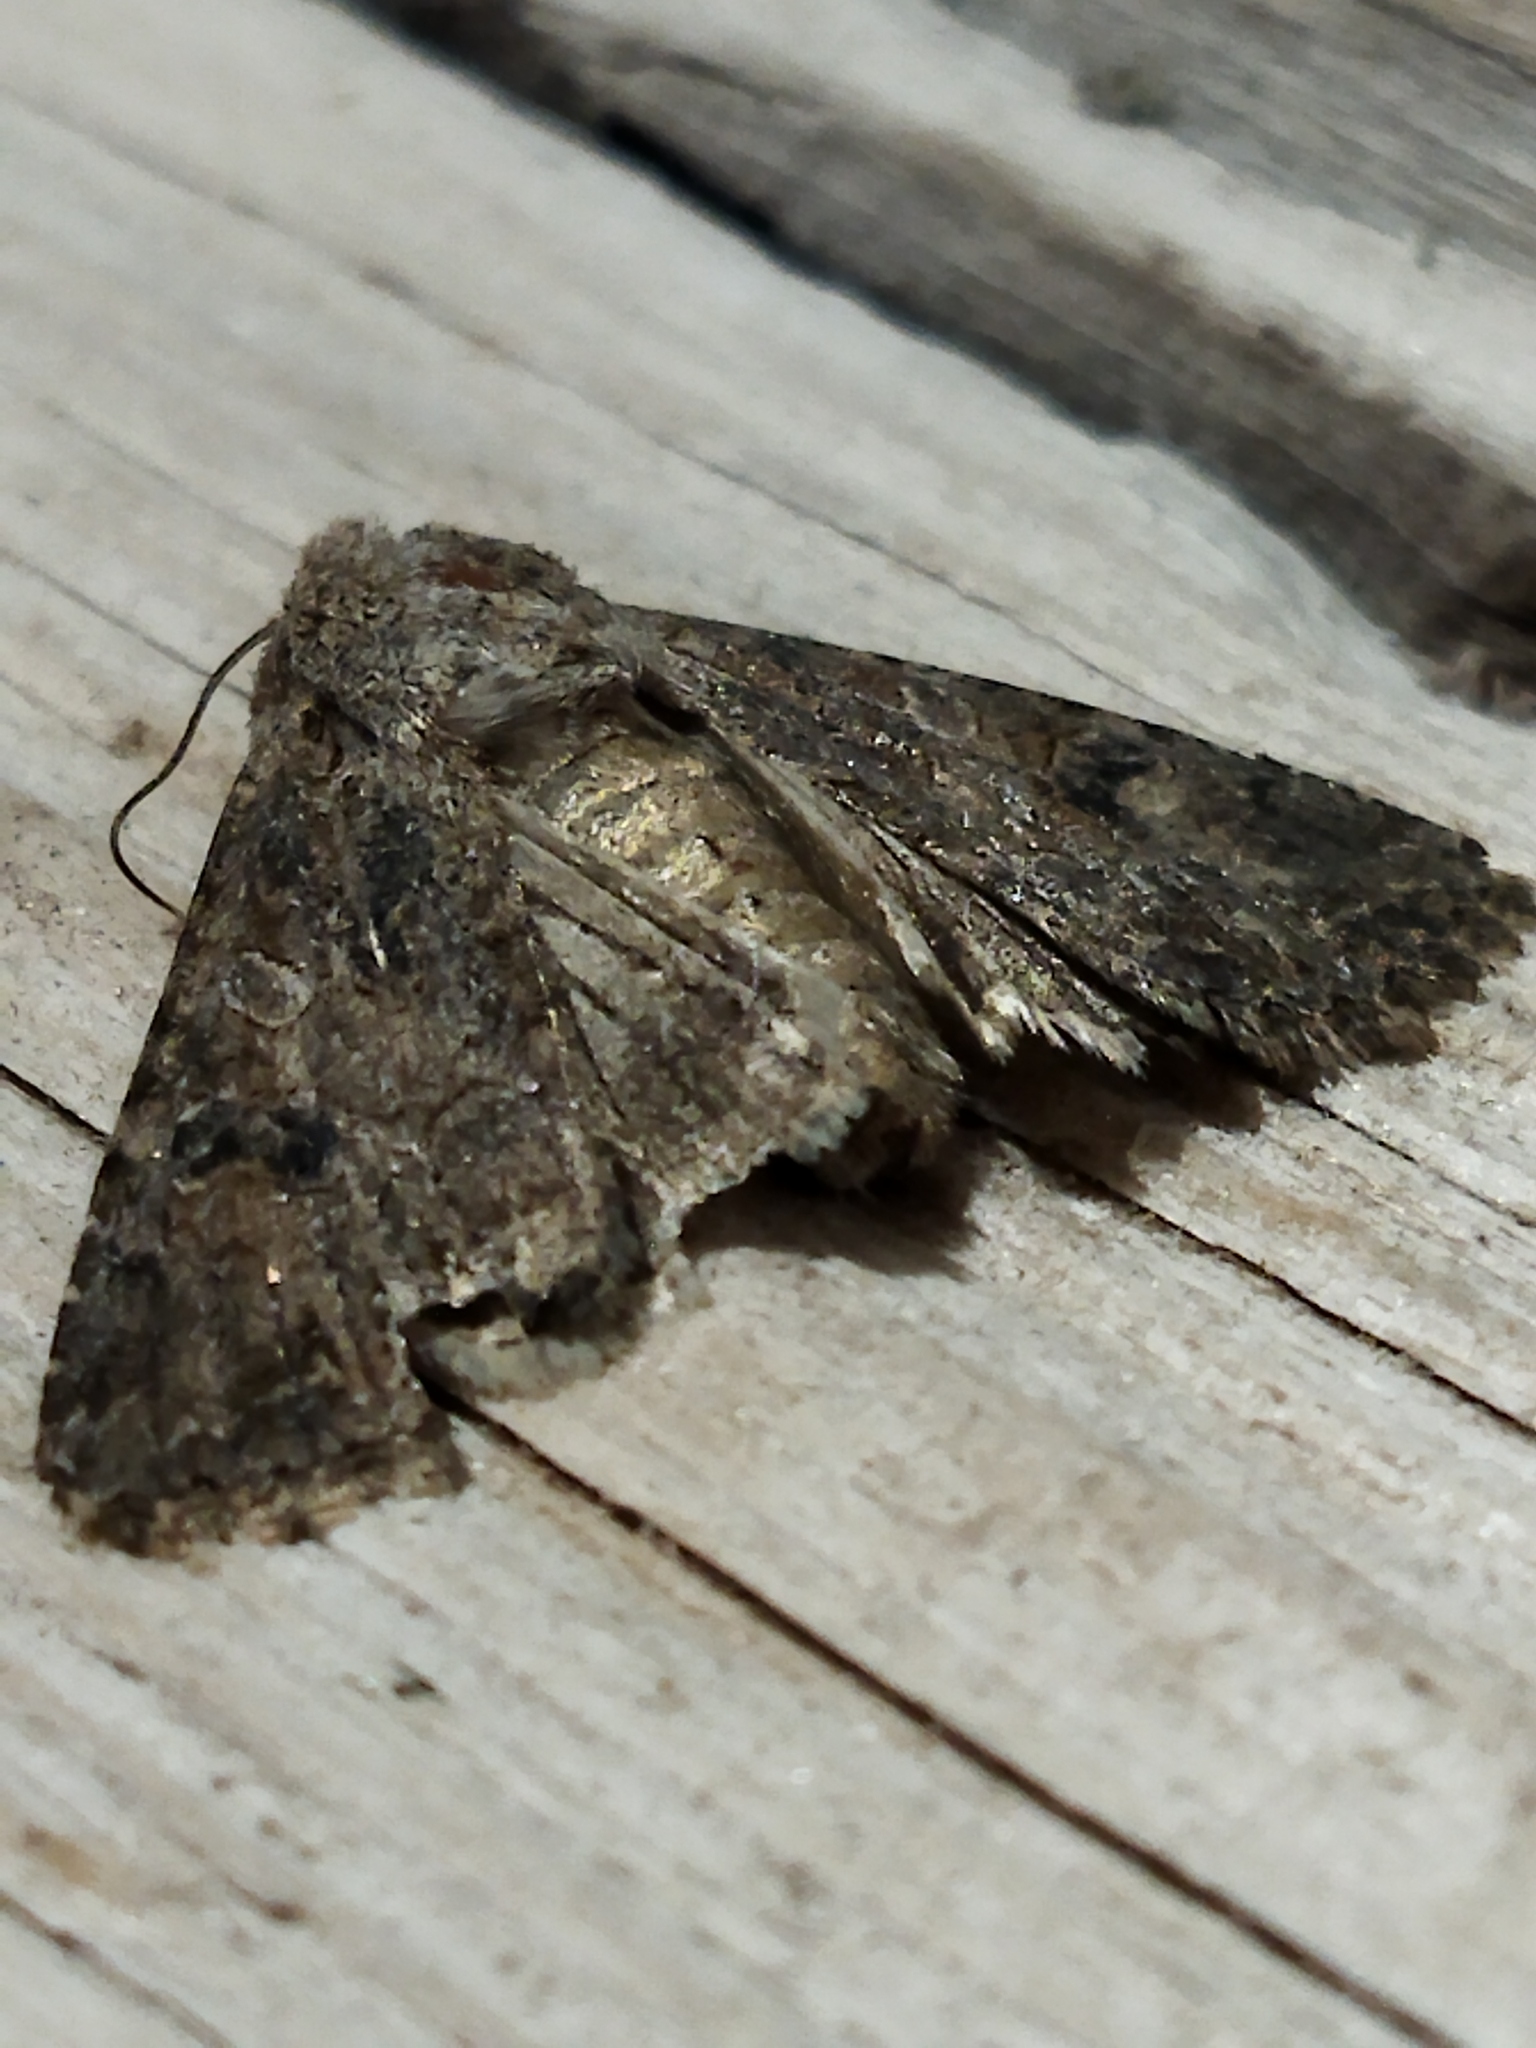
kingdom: Animalia
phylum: Arthropoda
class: Insecta
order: Lepidoptera
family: Noctuidae
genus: Anarta
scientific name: Anarta trifolii
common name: Clover cutworm moth
